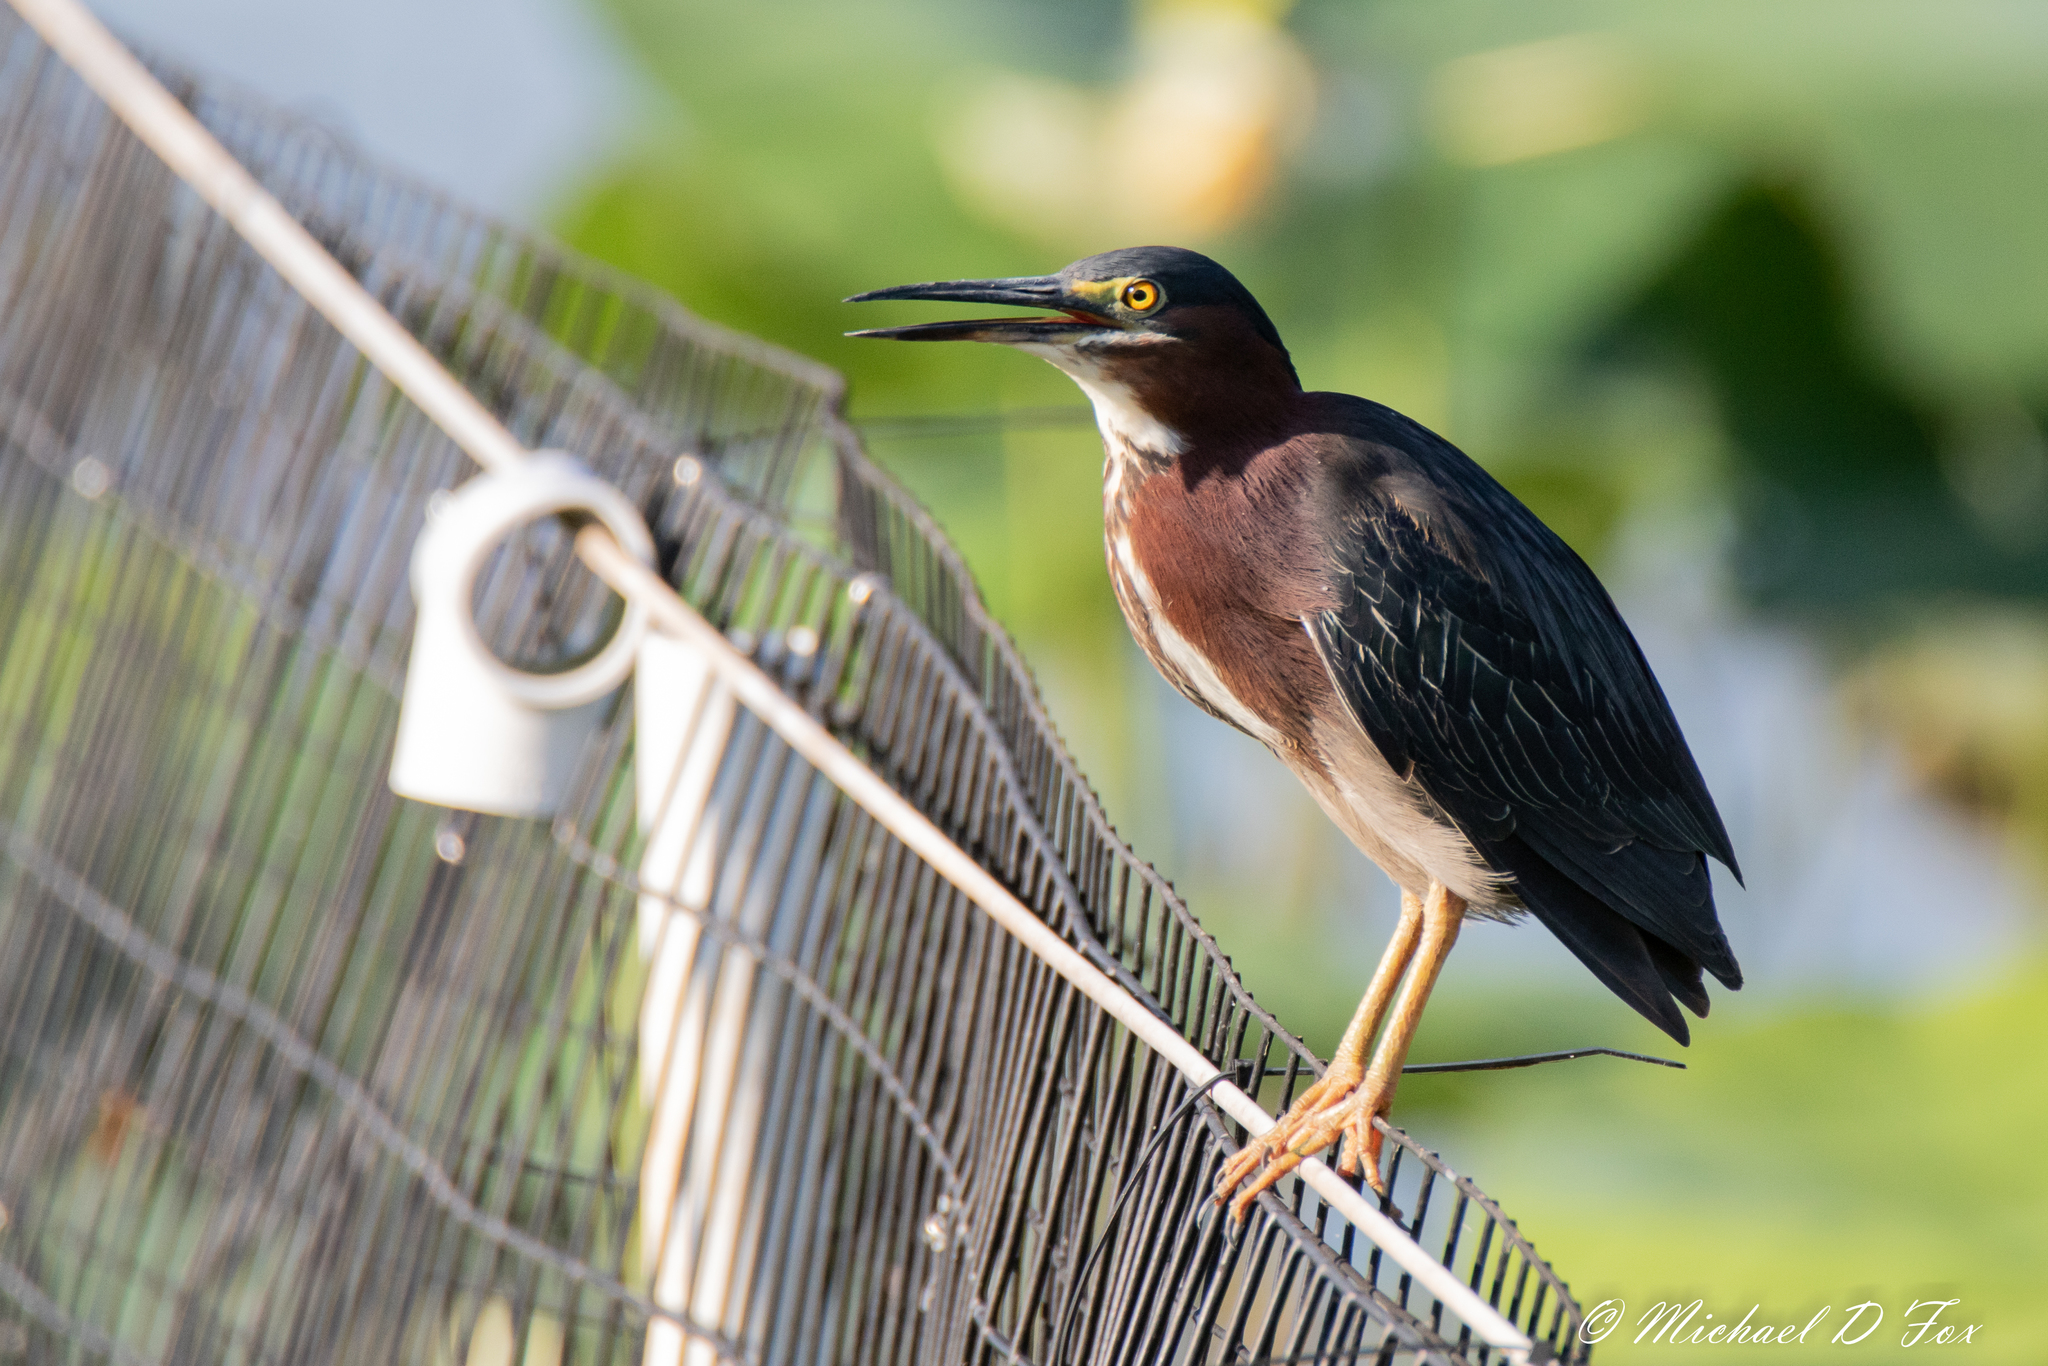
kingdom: Animalia
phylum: Chordata
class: Aves
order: Pelecaniformes
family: Ardeidae
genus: Butorides
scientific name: Butorides virescens
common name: Green heron
